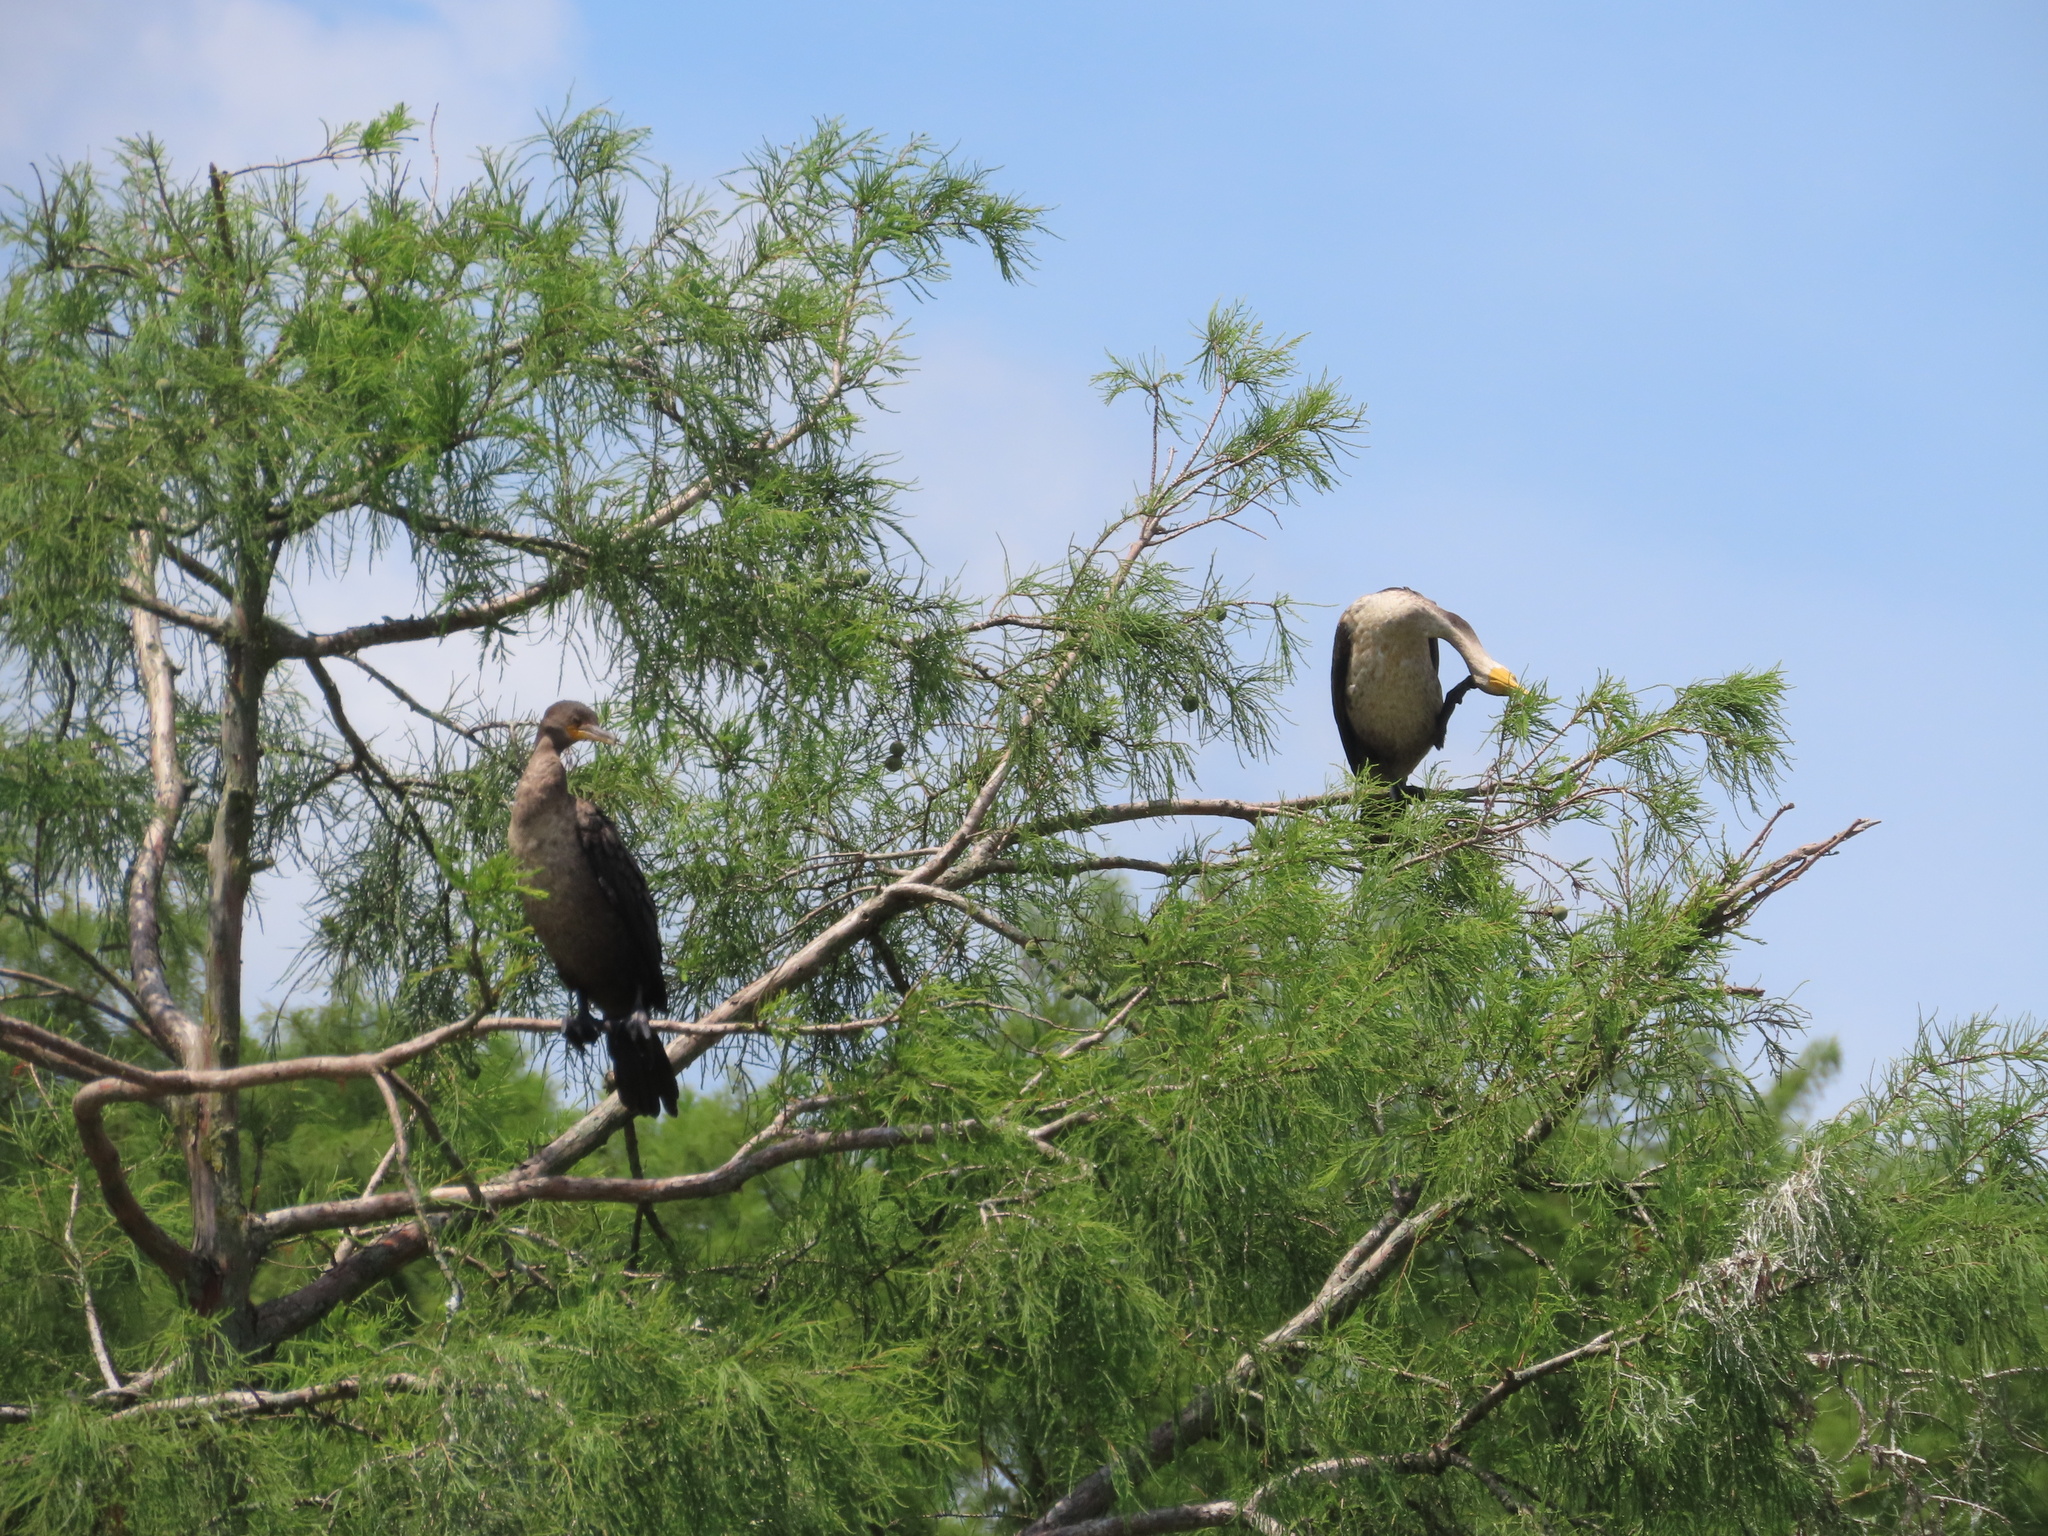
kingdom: Animalia
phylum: Chordata
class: Aves
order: Suliformes
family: Phalacrocoracidae
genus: Phalacrocorax
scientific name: Phalacrocorax auritus
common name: Double-crested cormorant
